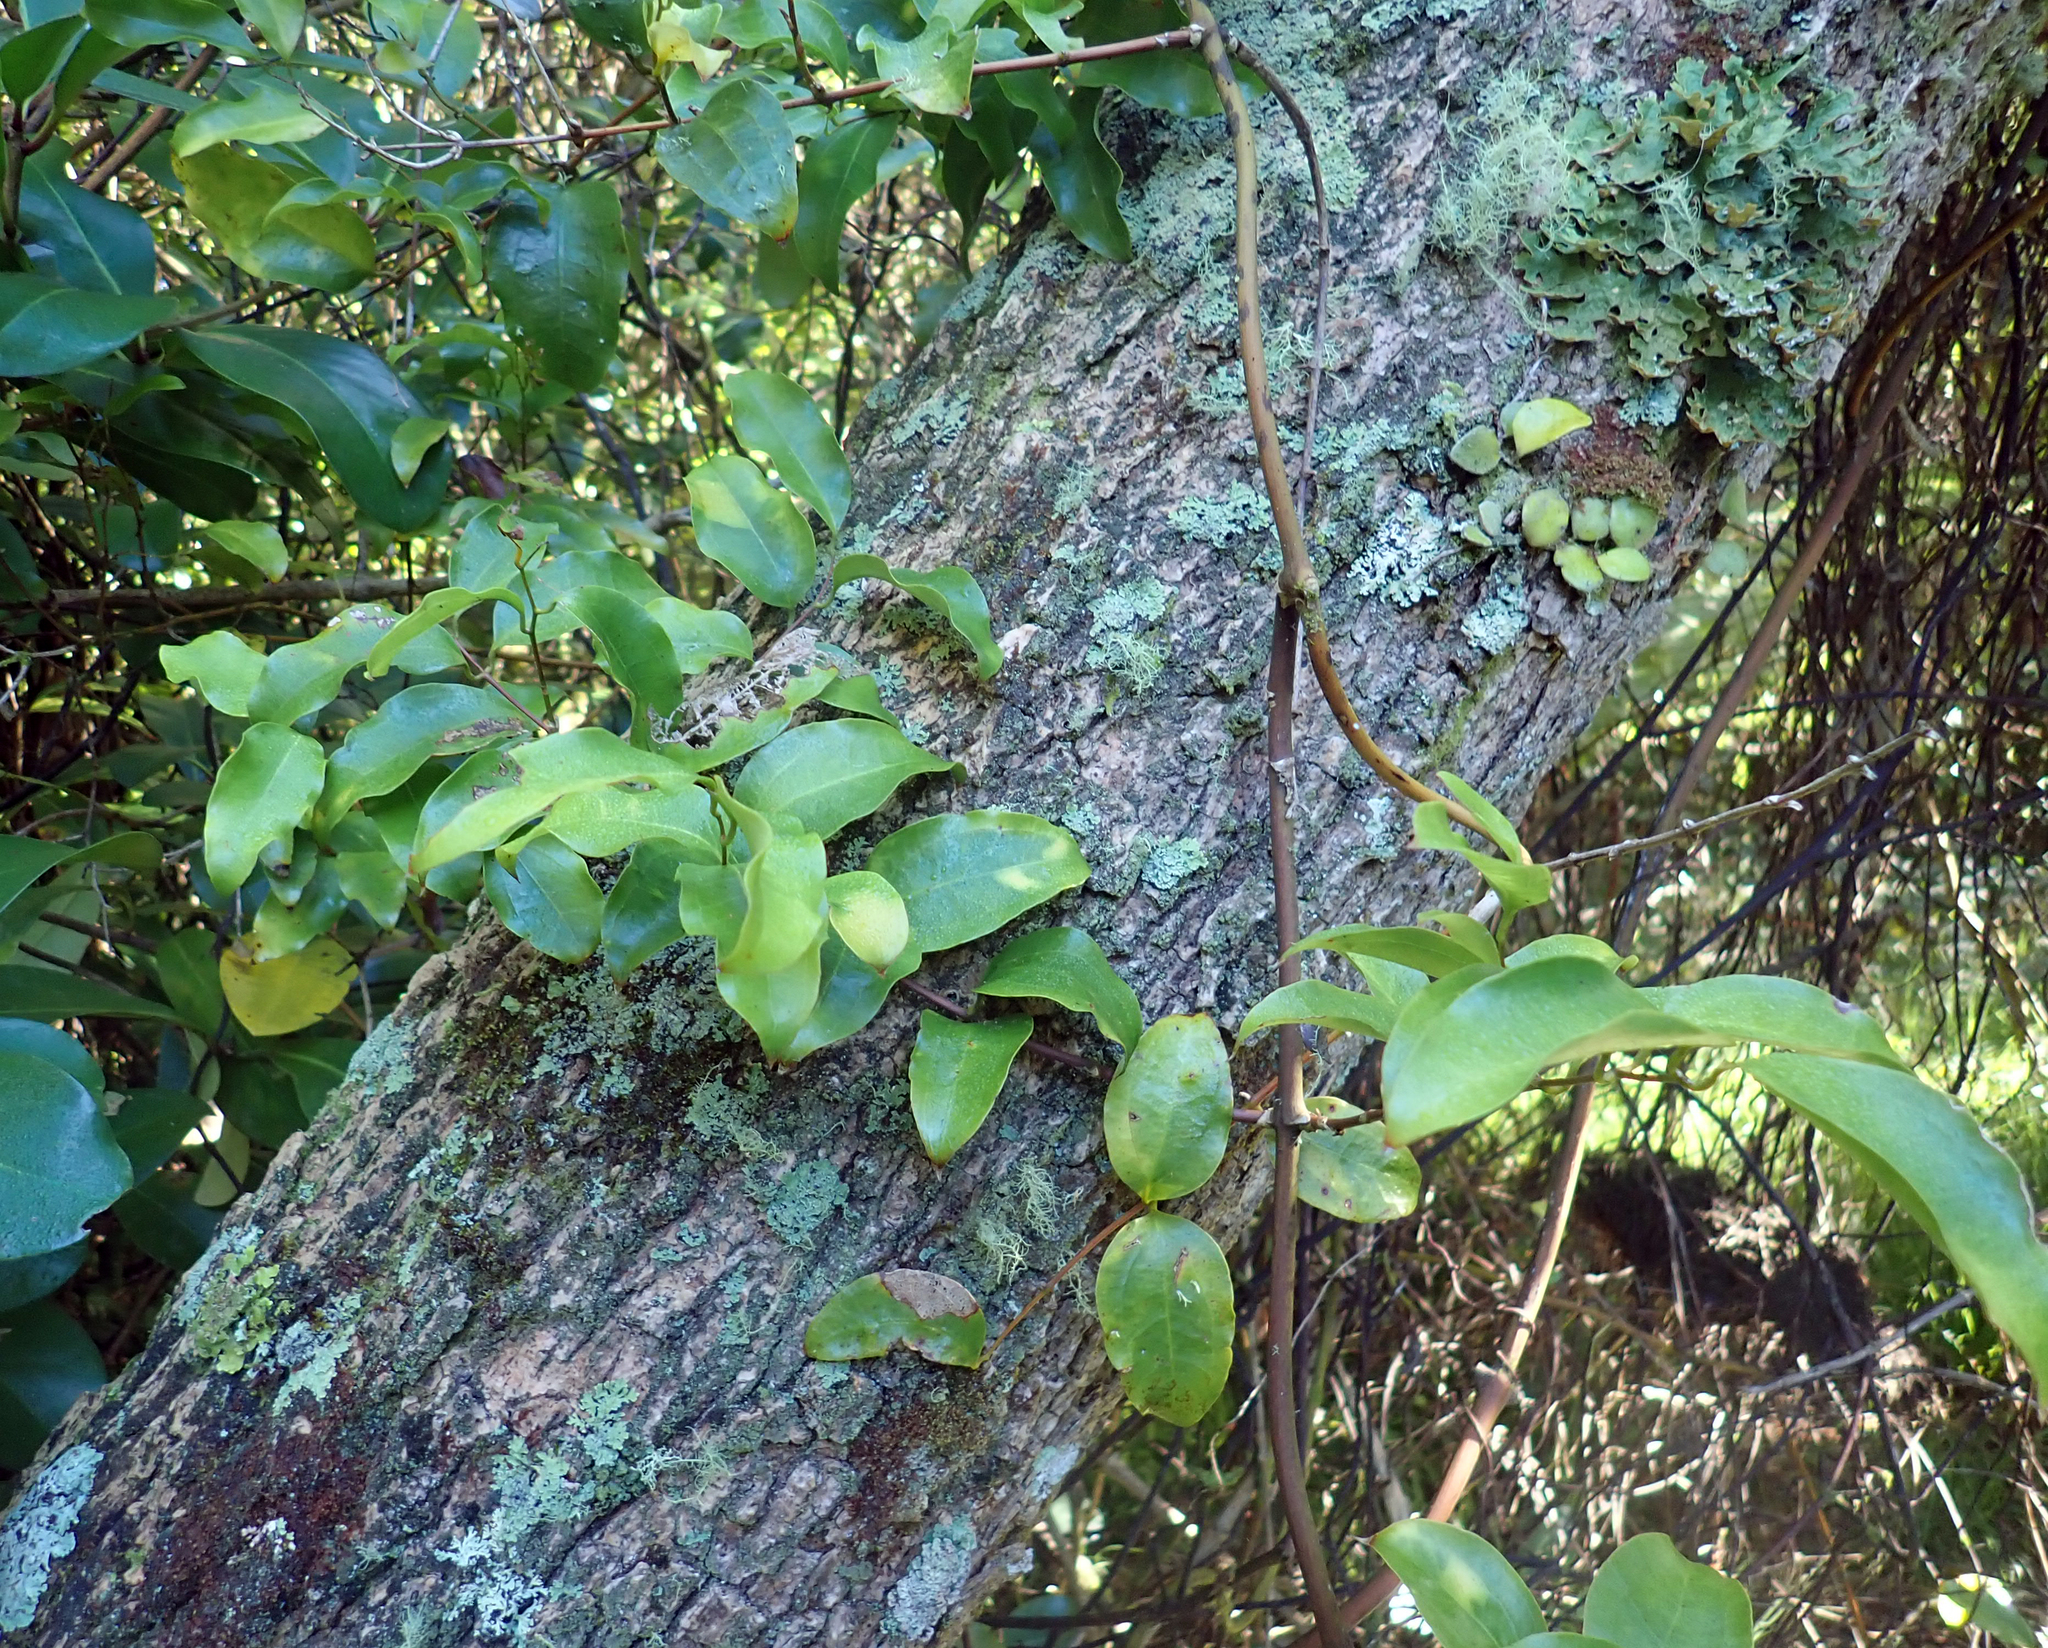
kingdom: Plantae
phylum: Tracheophyta
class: Liliopsida
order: Liliales
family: Ripogonaceae
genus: Ripogonum
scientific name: Ripogonum scandens
